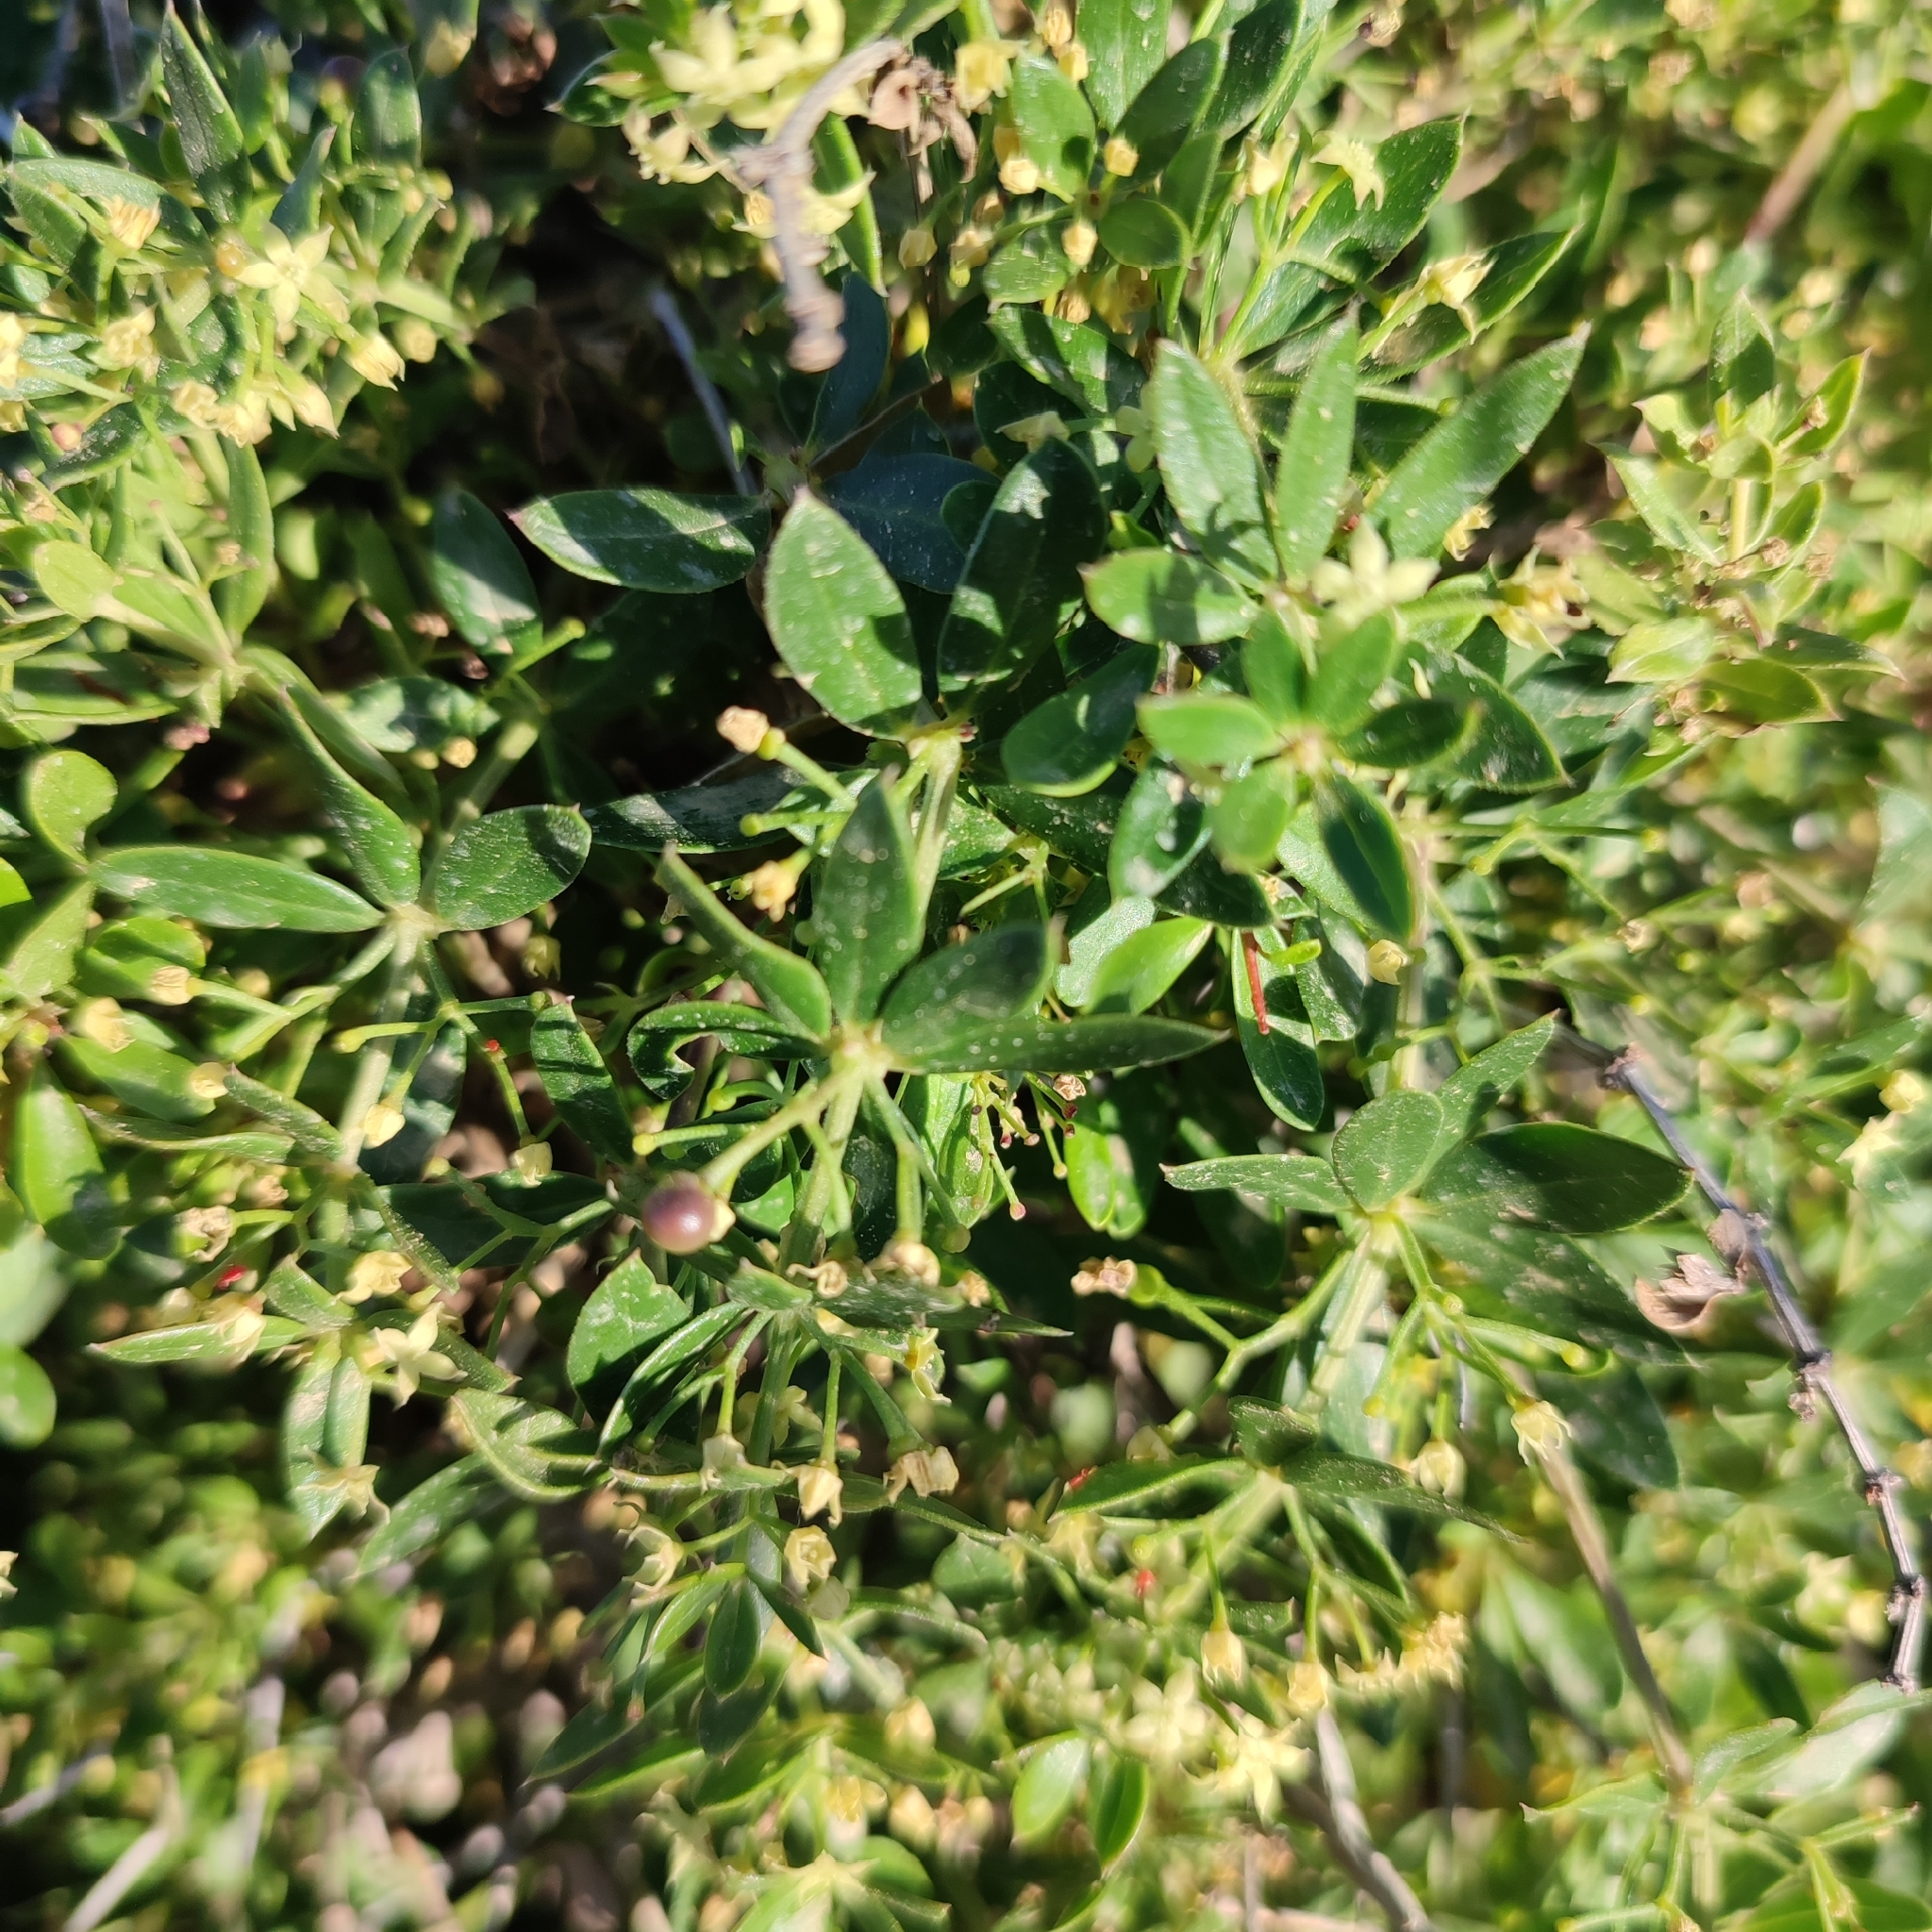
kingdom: Plantae
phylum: Tracheophyta
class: Magnoliopsida
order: Gentianales
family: Rubiaceae
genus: Rubia
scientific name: Rubia tenuifolia
